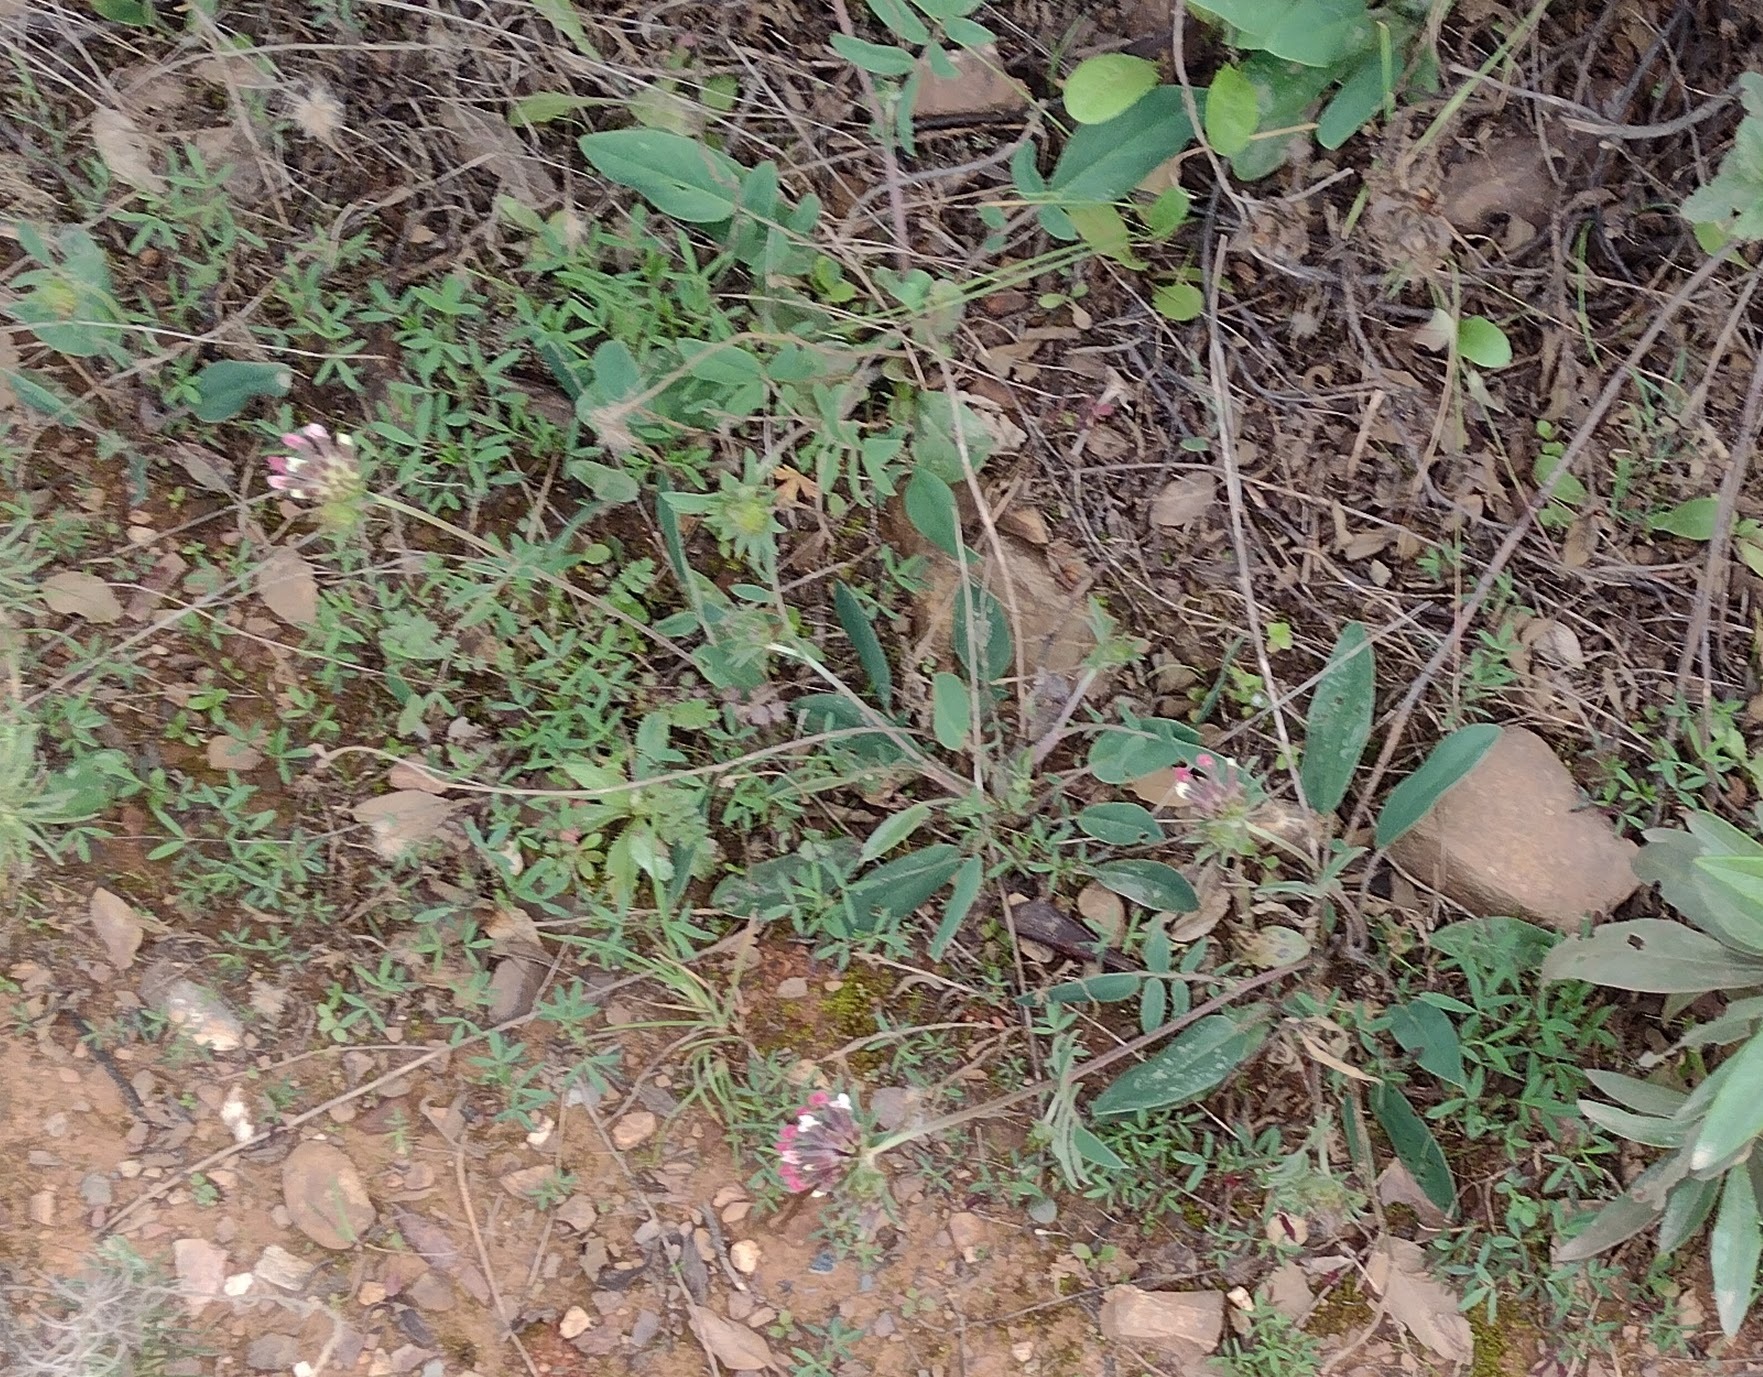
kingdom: Plantae
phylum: Tracheophyta
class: Magnoliopsida
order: Fabales
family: Fabaceae
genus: Anthyllis
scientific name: Anthyllis vulneraria
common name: Kidney vetch
